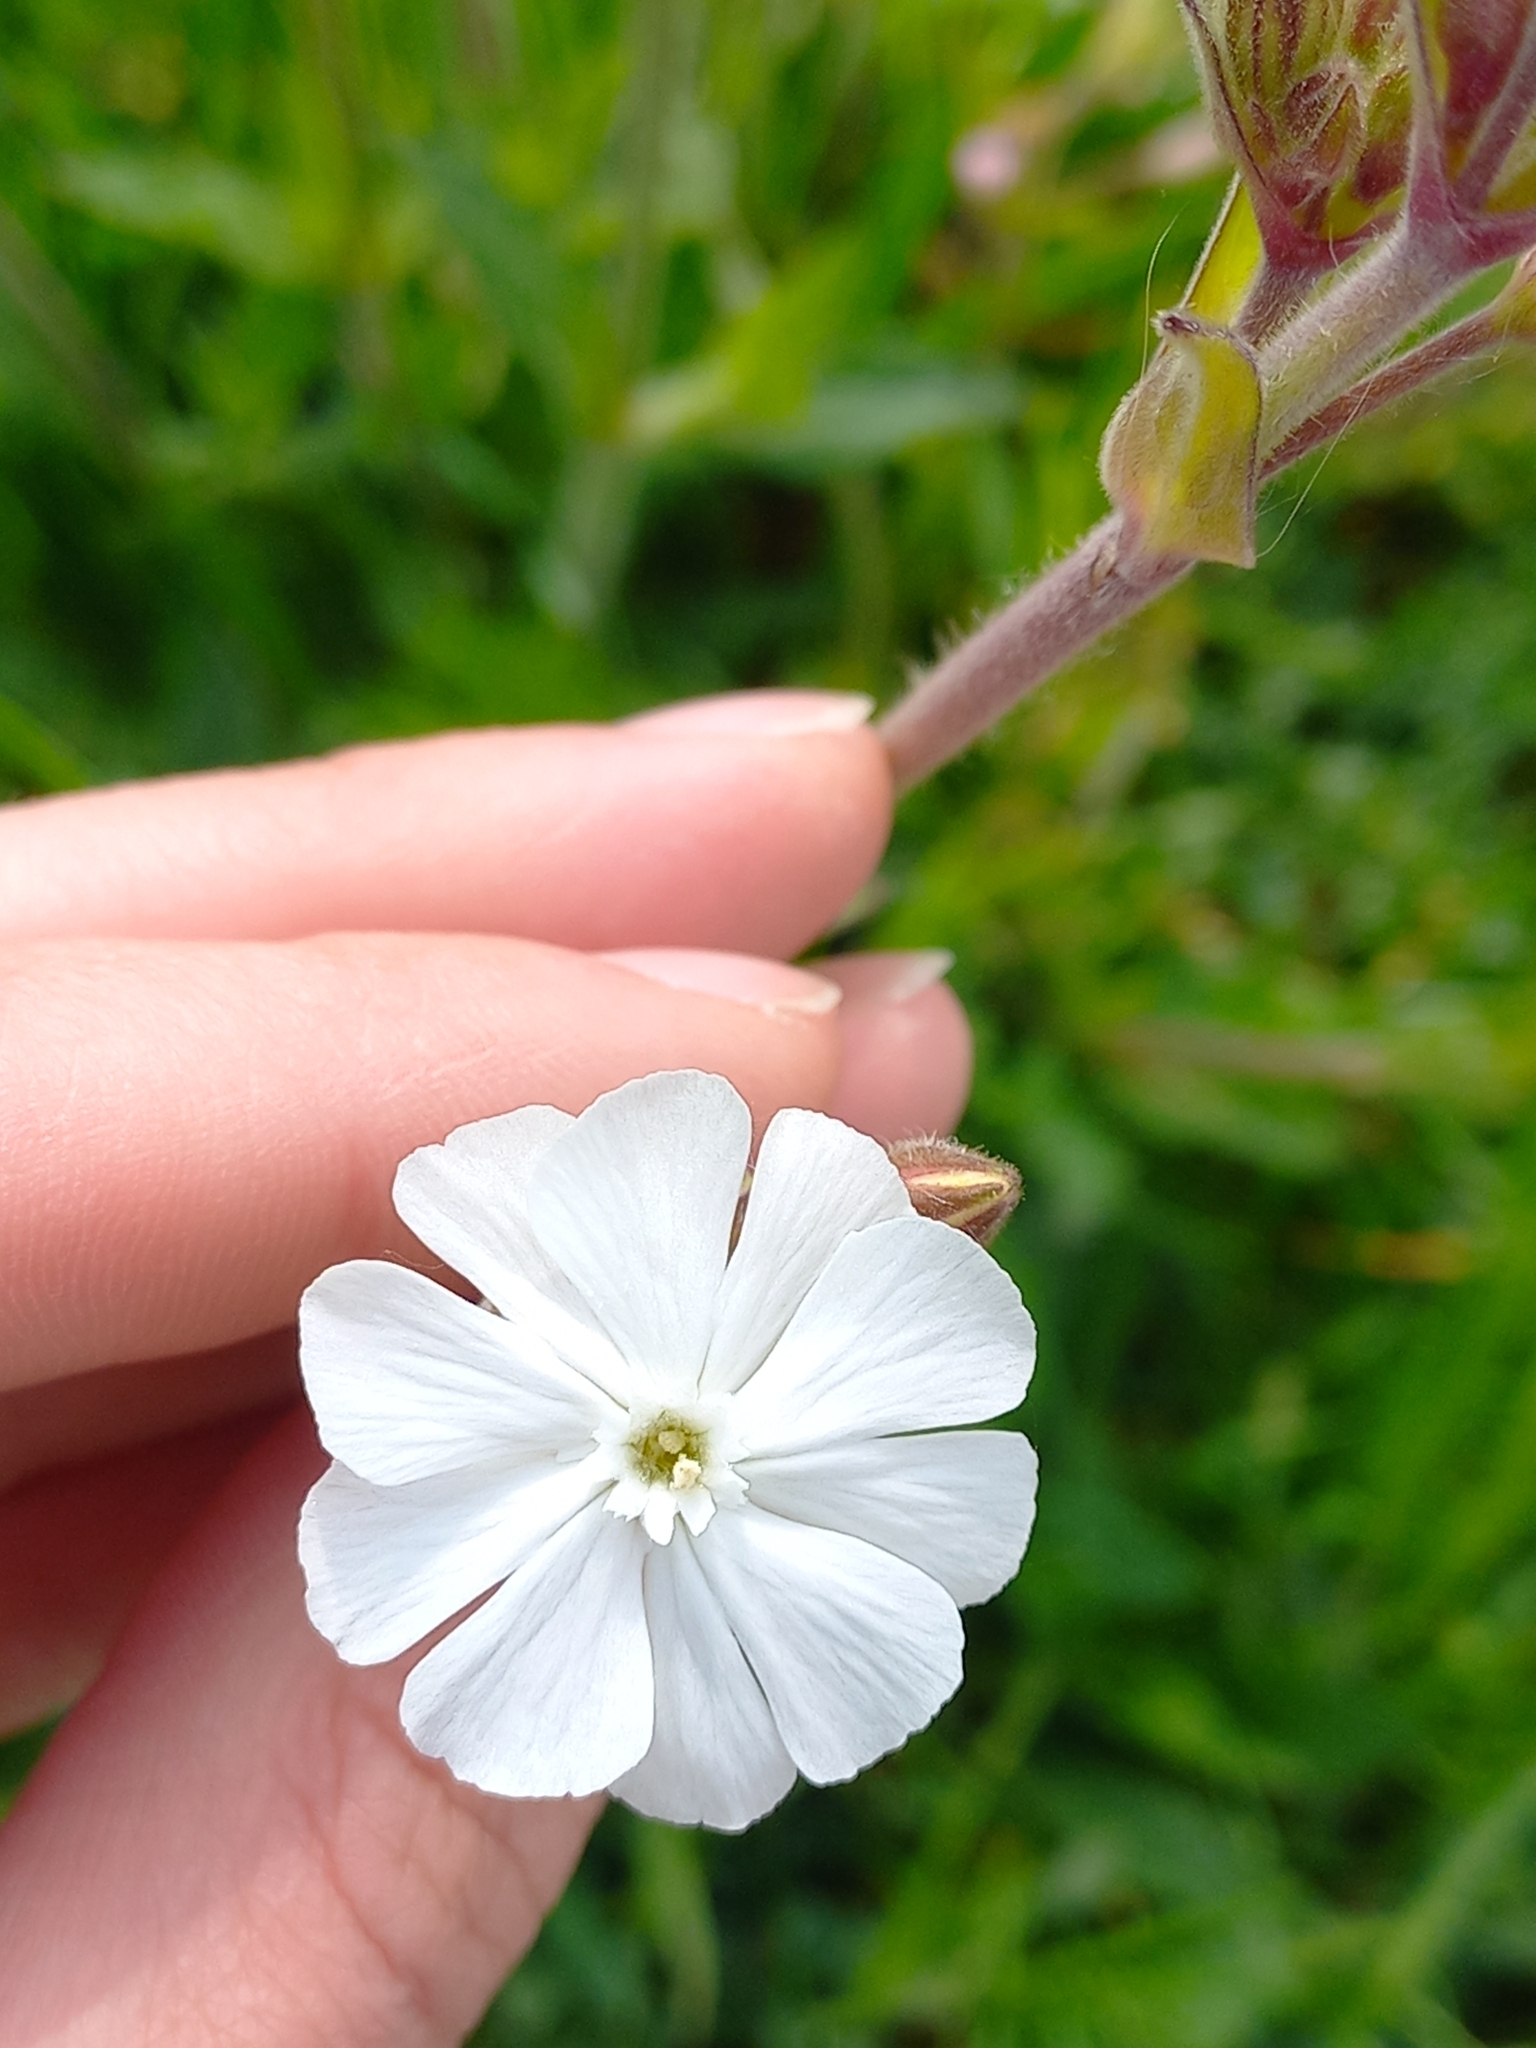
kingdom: Plantae
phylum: Tracheophyta
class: Magnoliopsida
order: Caryophyllales
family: Caryophyllaceae
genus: Silene
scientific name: Silene latifolia
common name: White campion
